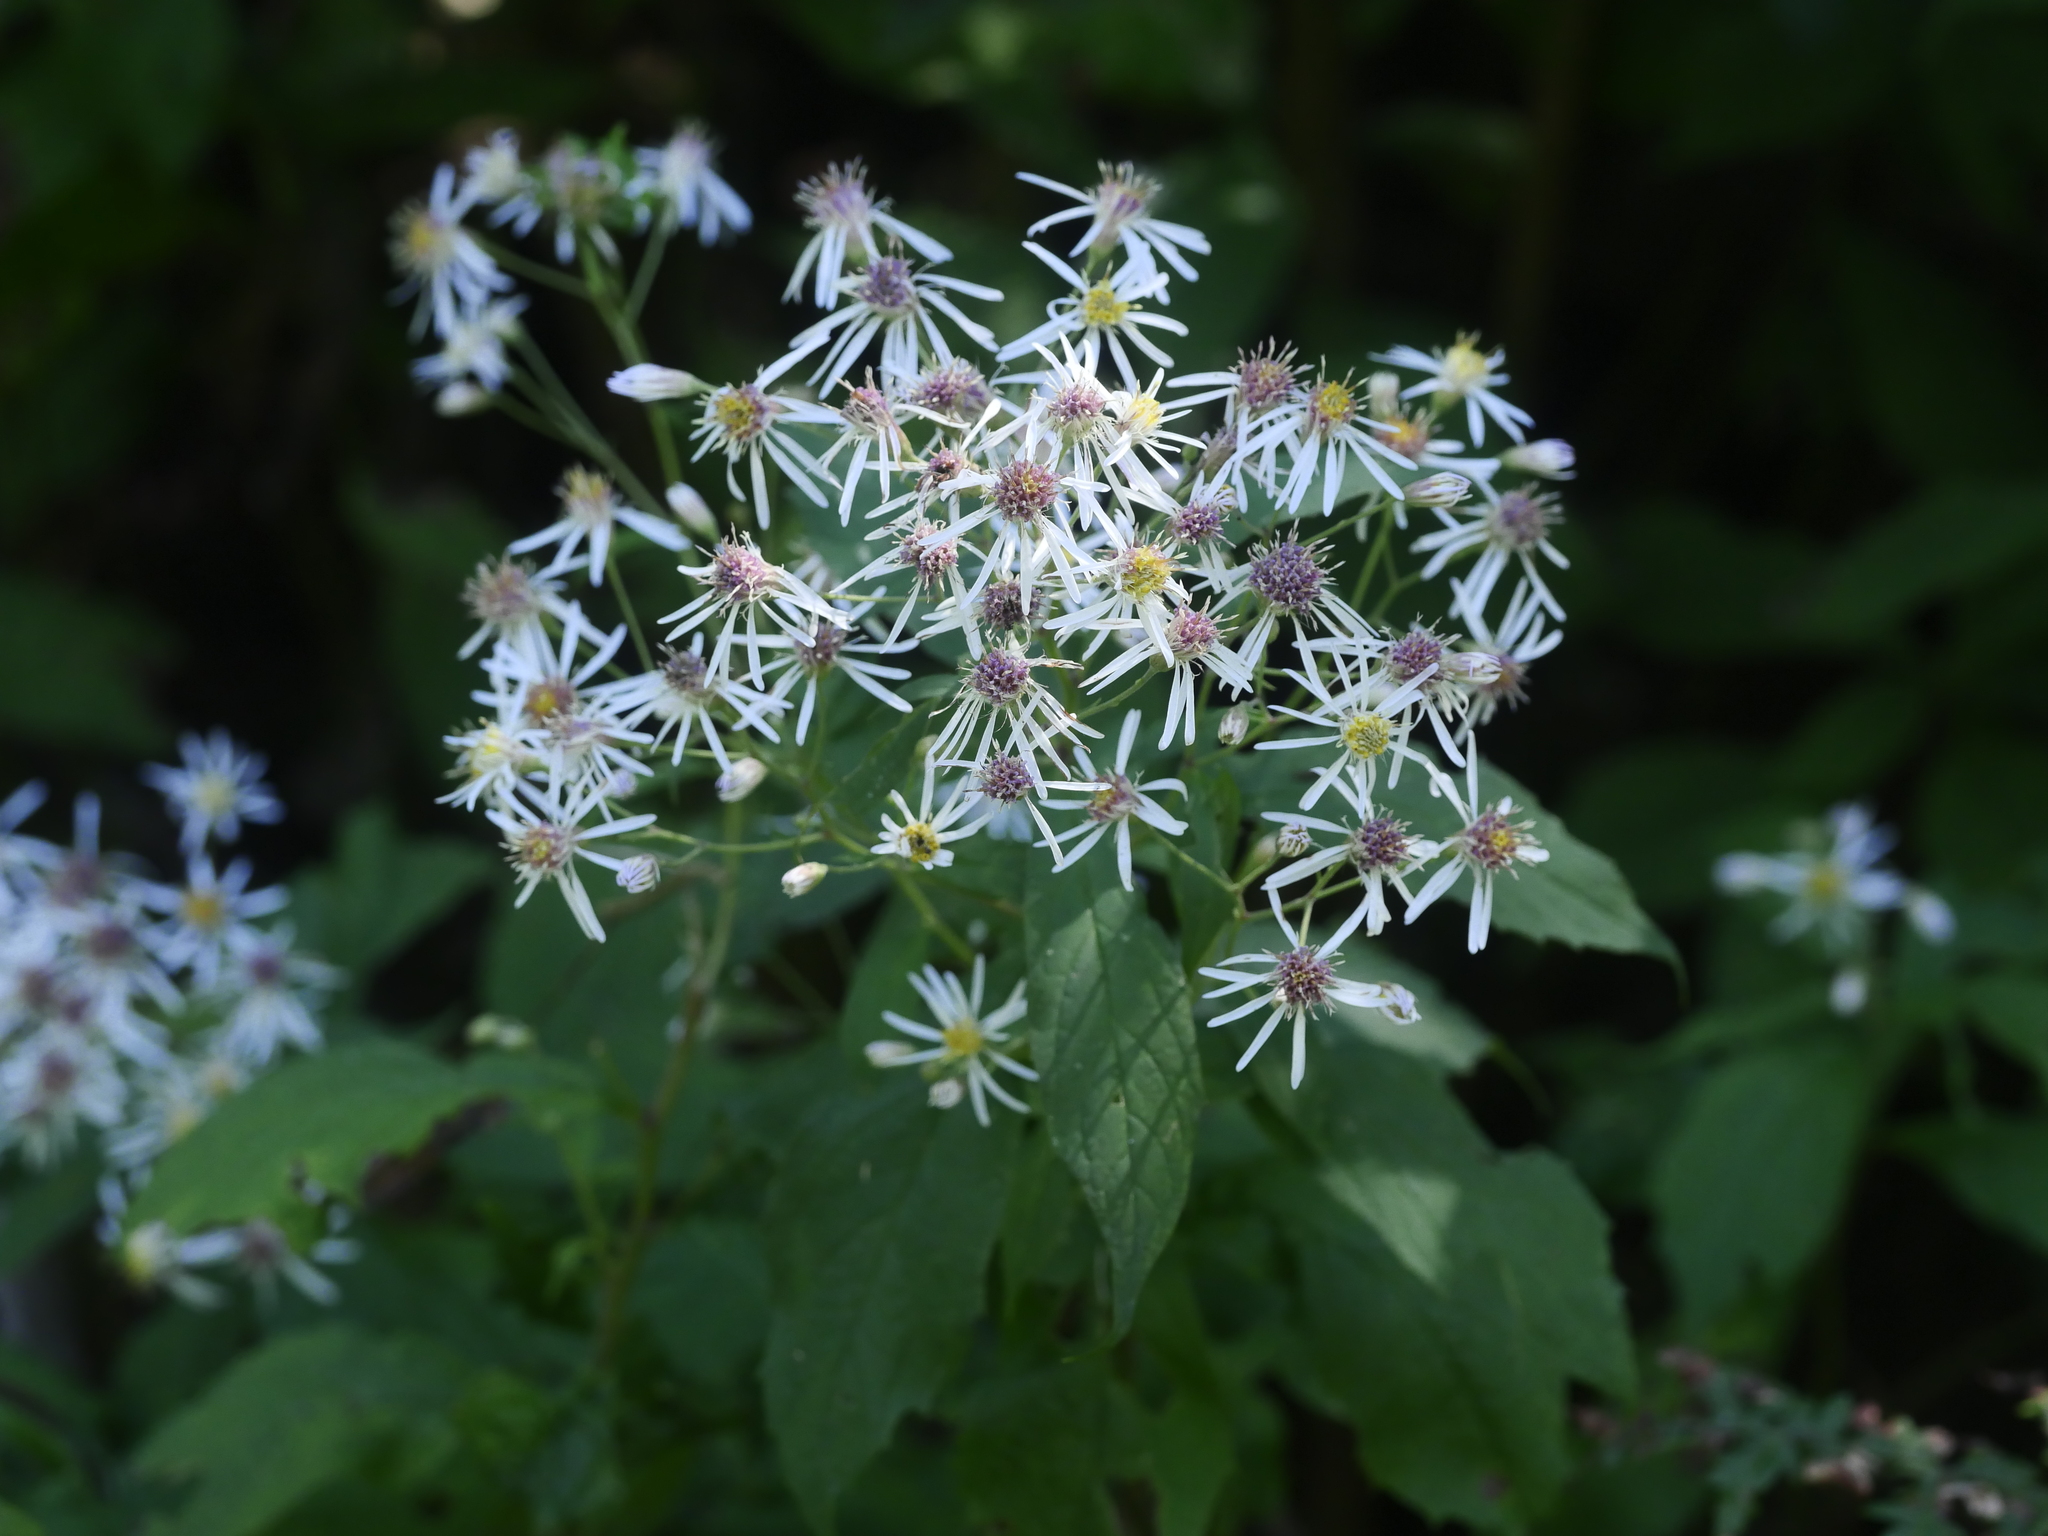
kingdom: Plantae
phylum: Tracheophyta
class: Magnoliopsida
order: Asterales
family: Asteraceae
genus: Symphyotrichum
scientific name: Symphyotrichum cordifolium
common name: Beeweed
